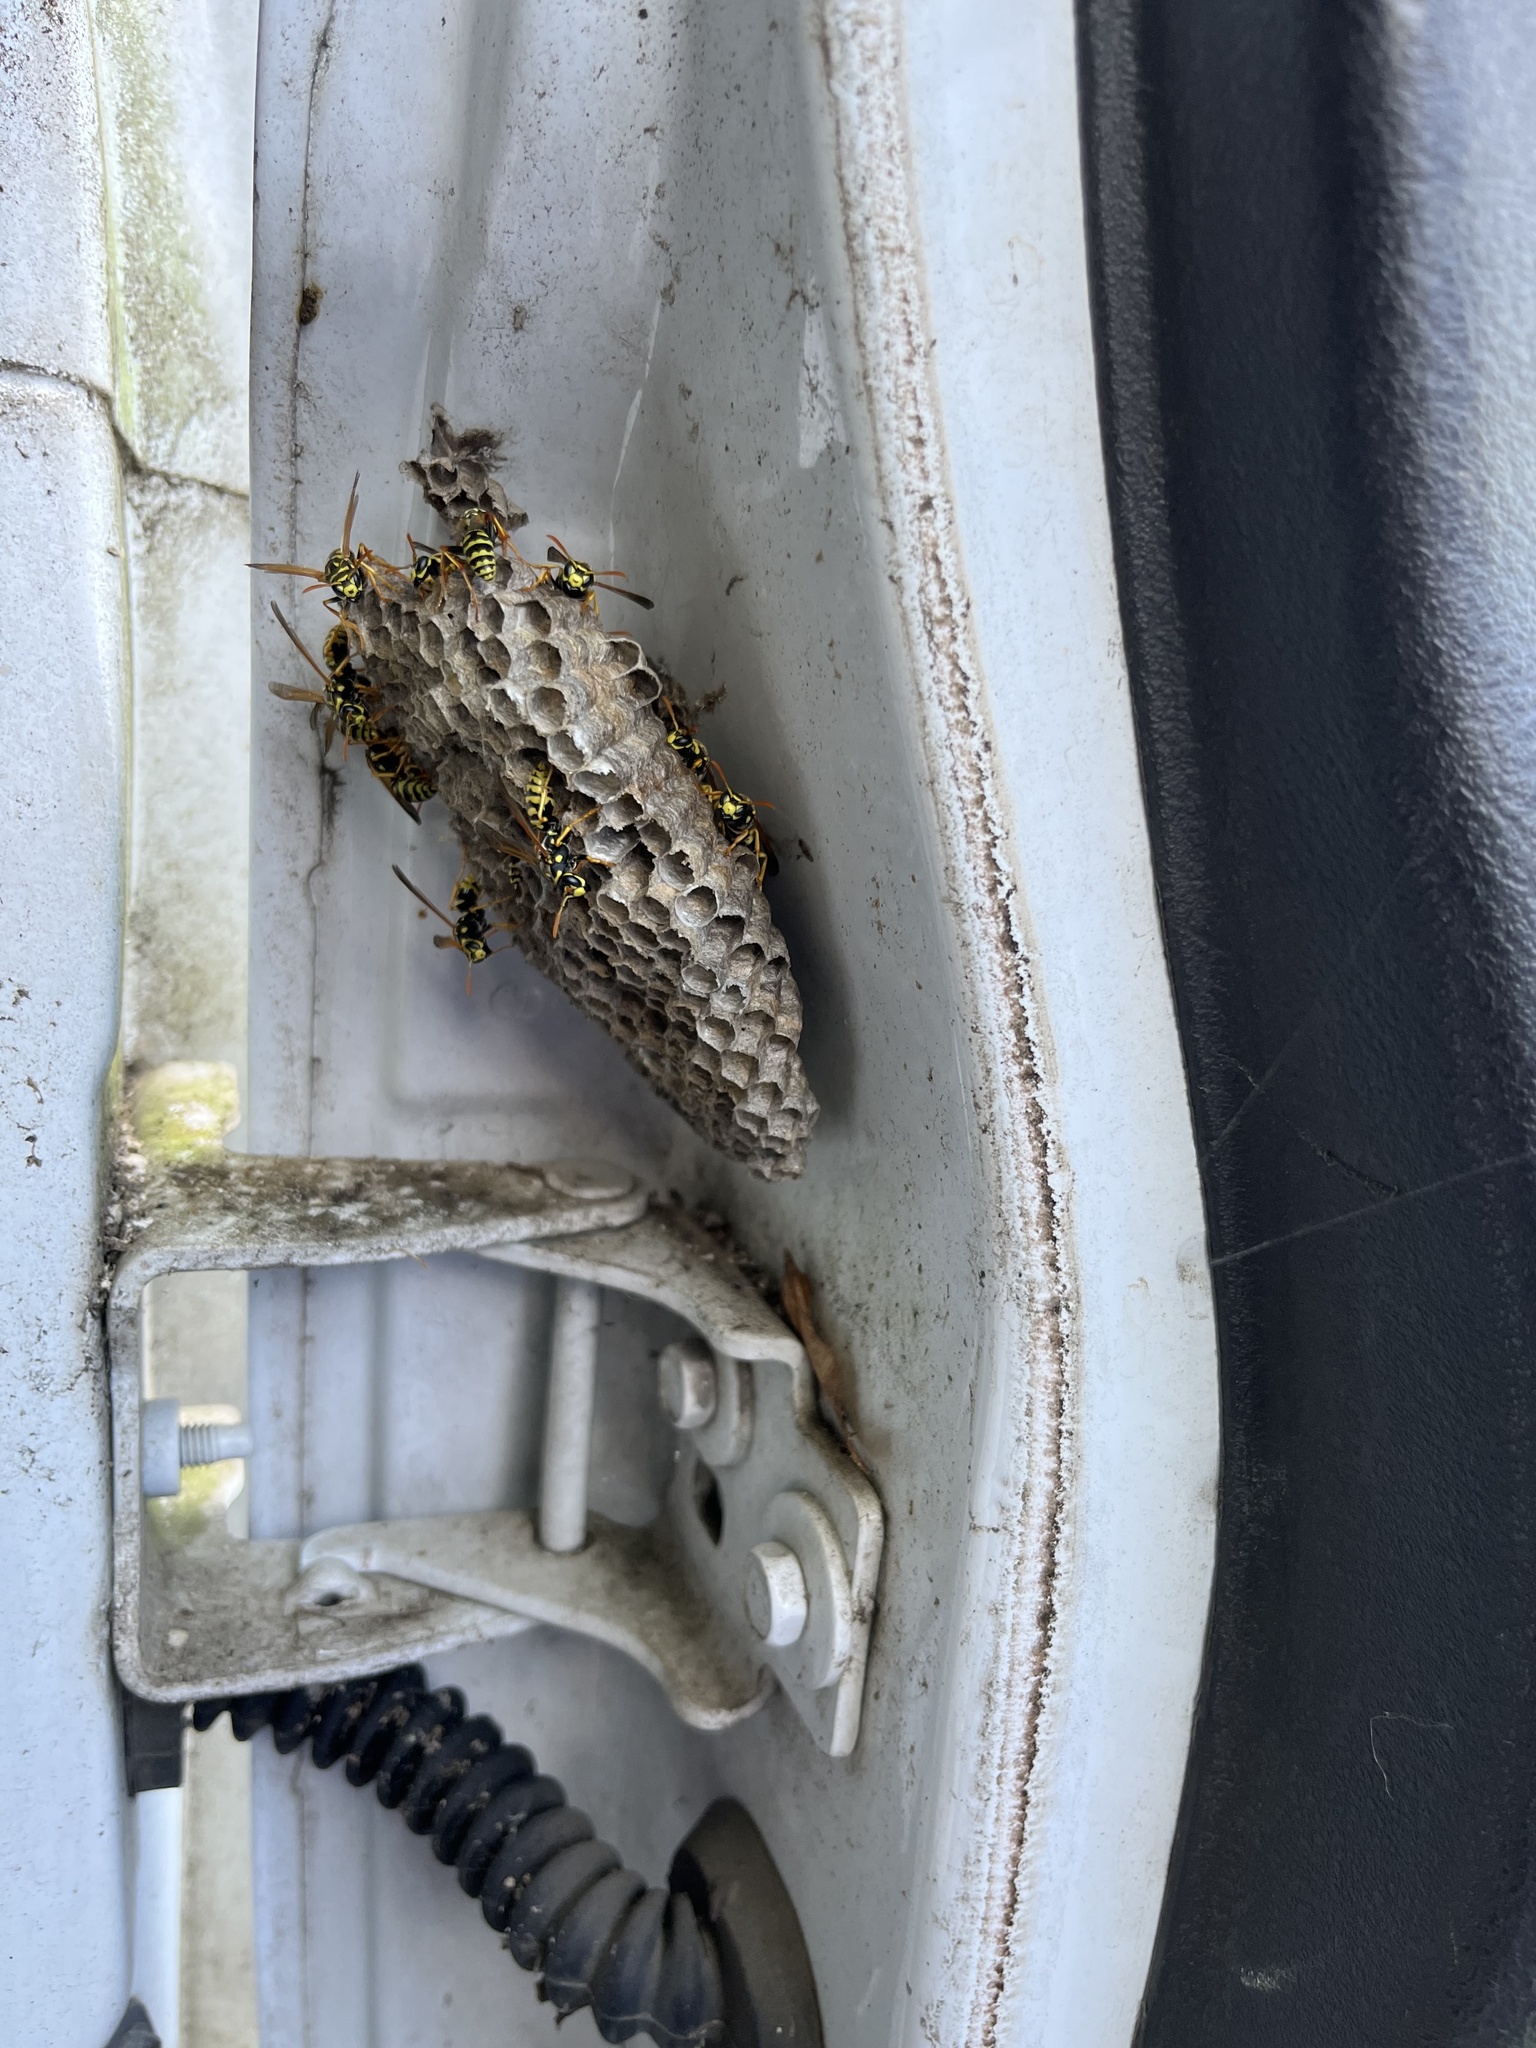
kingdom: Animalia
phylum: Arthropoda
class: Insecta
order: Hymenoptera
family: Eumenidae
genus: Polistes
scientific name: Polistes dominula
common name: Paper wasp
